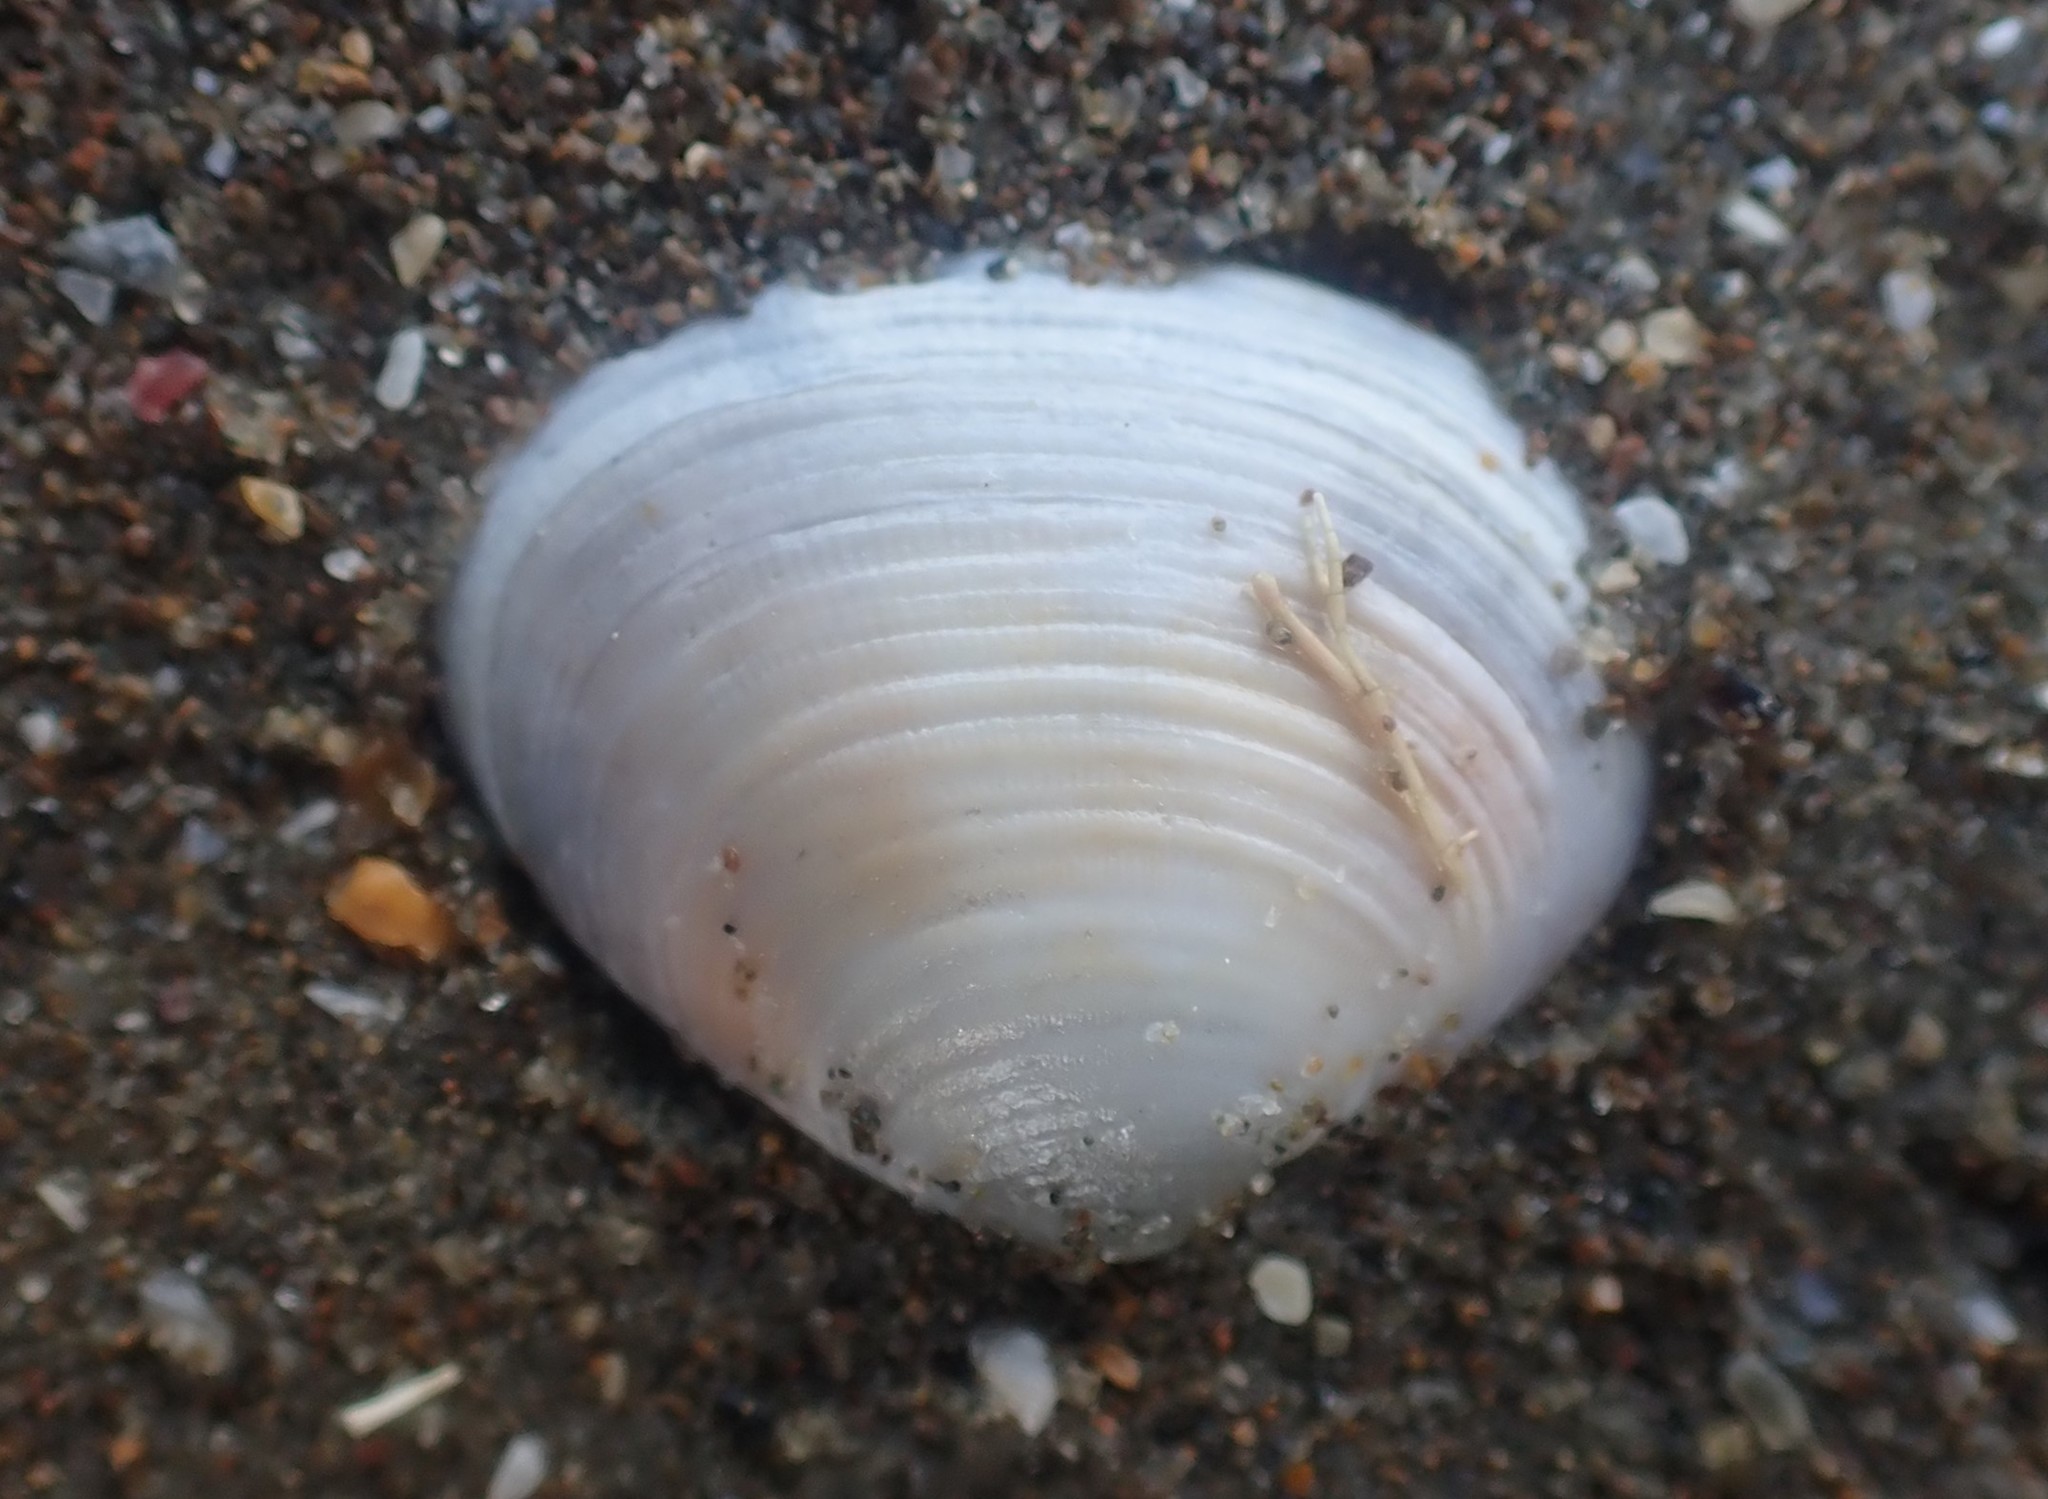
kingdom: Animalia
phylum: Mollusca
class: Bivalvia
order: Venerida
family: Veneridae
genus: Tawera
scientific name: Tawera spissa
